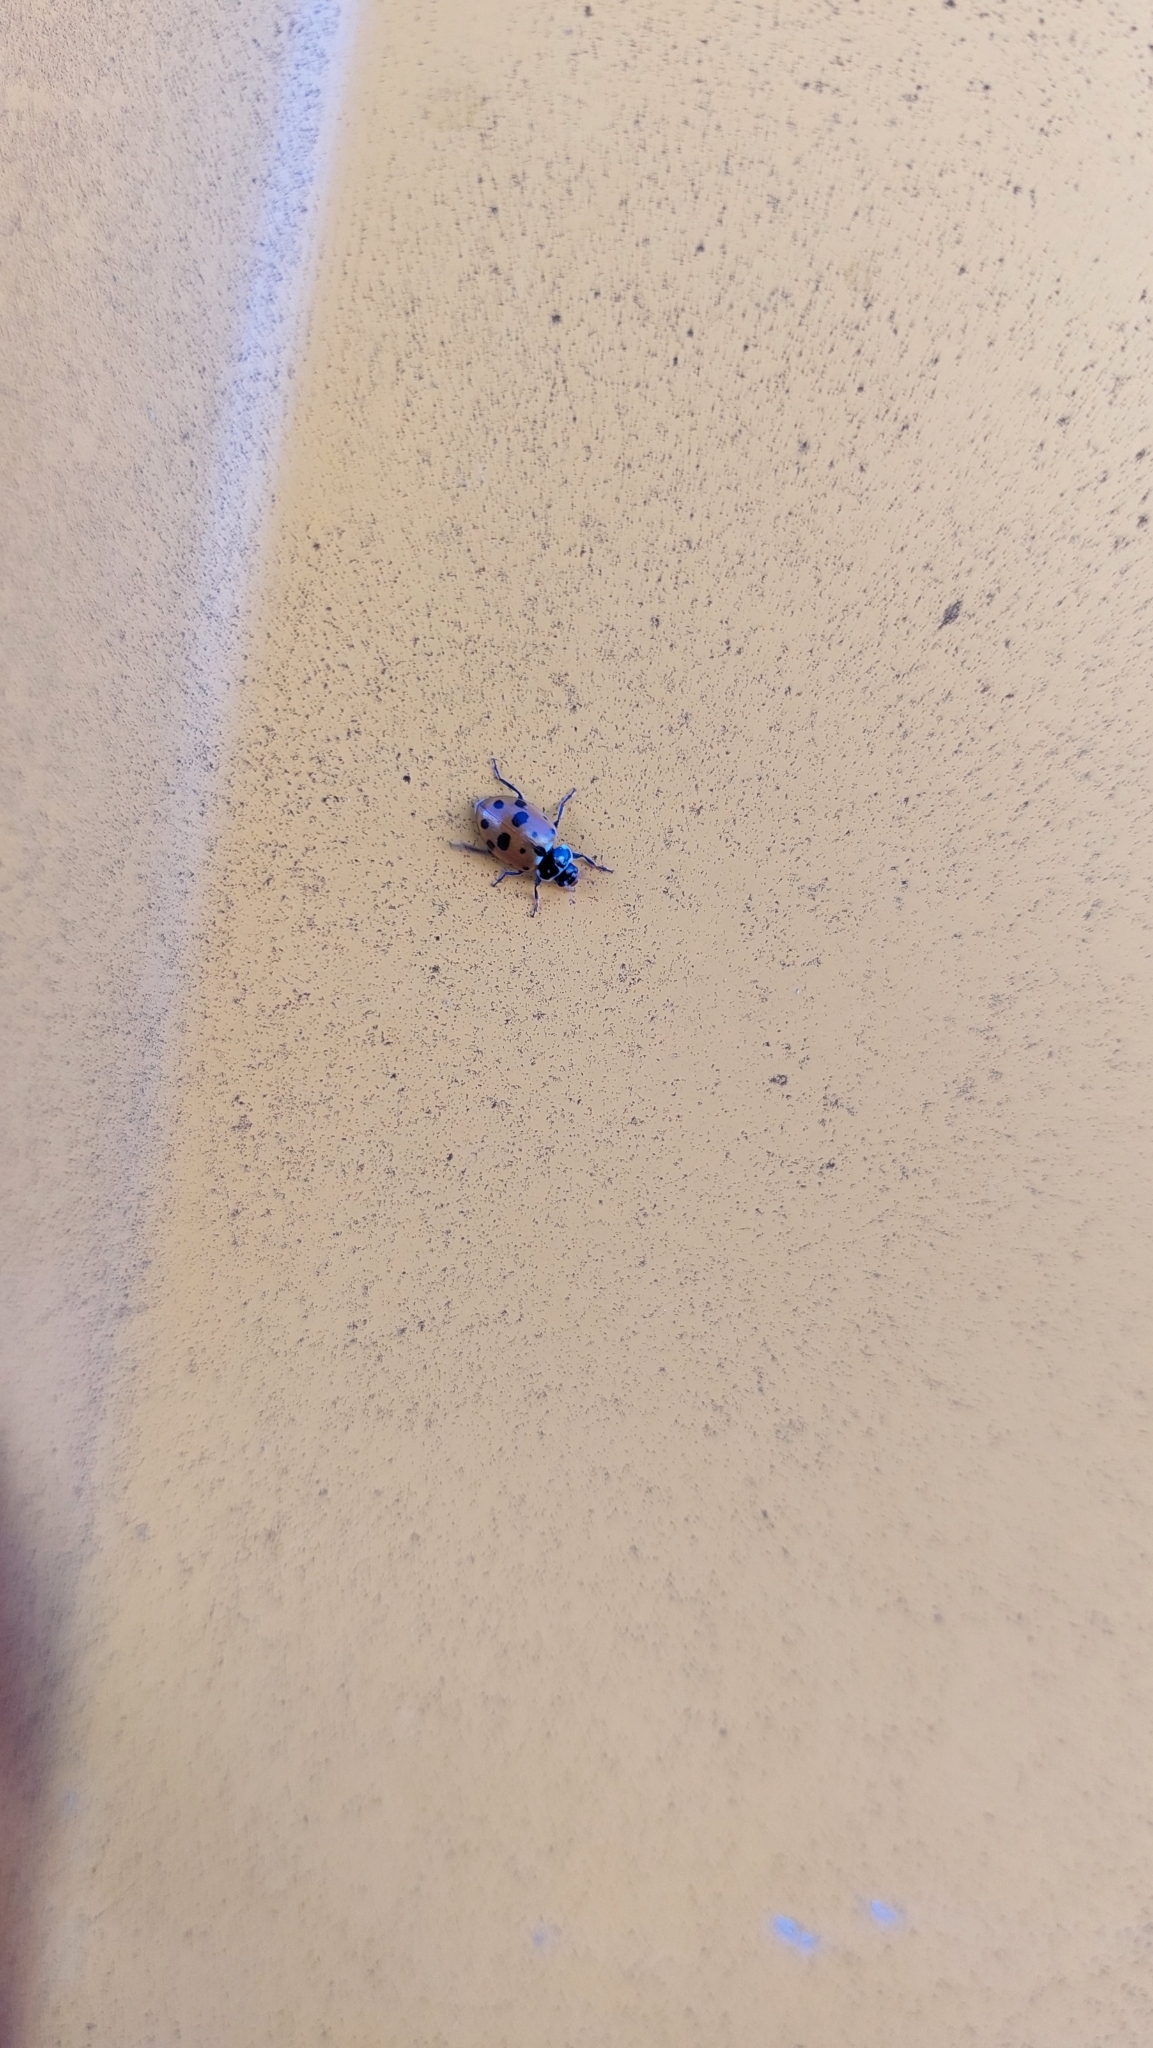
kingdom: Animalia
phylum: Arthropoda
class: Insecta
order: Coleoptera
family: Coccinellidae
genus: Hippodamia
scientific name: Hippodamia variegata
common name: Ladybird beetle
